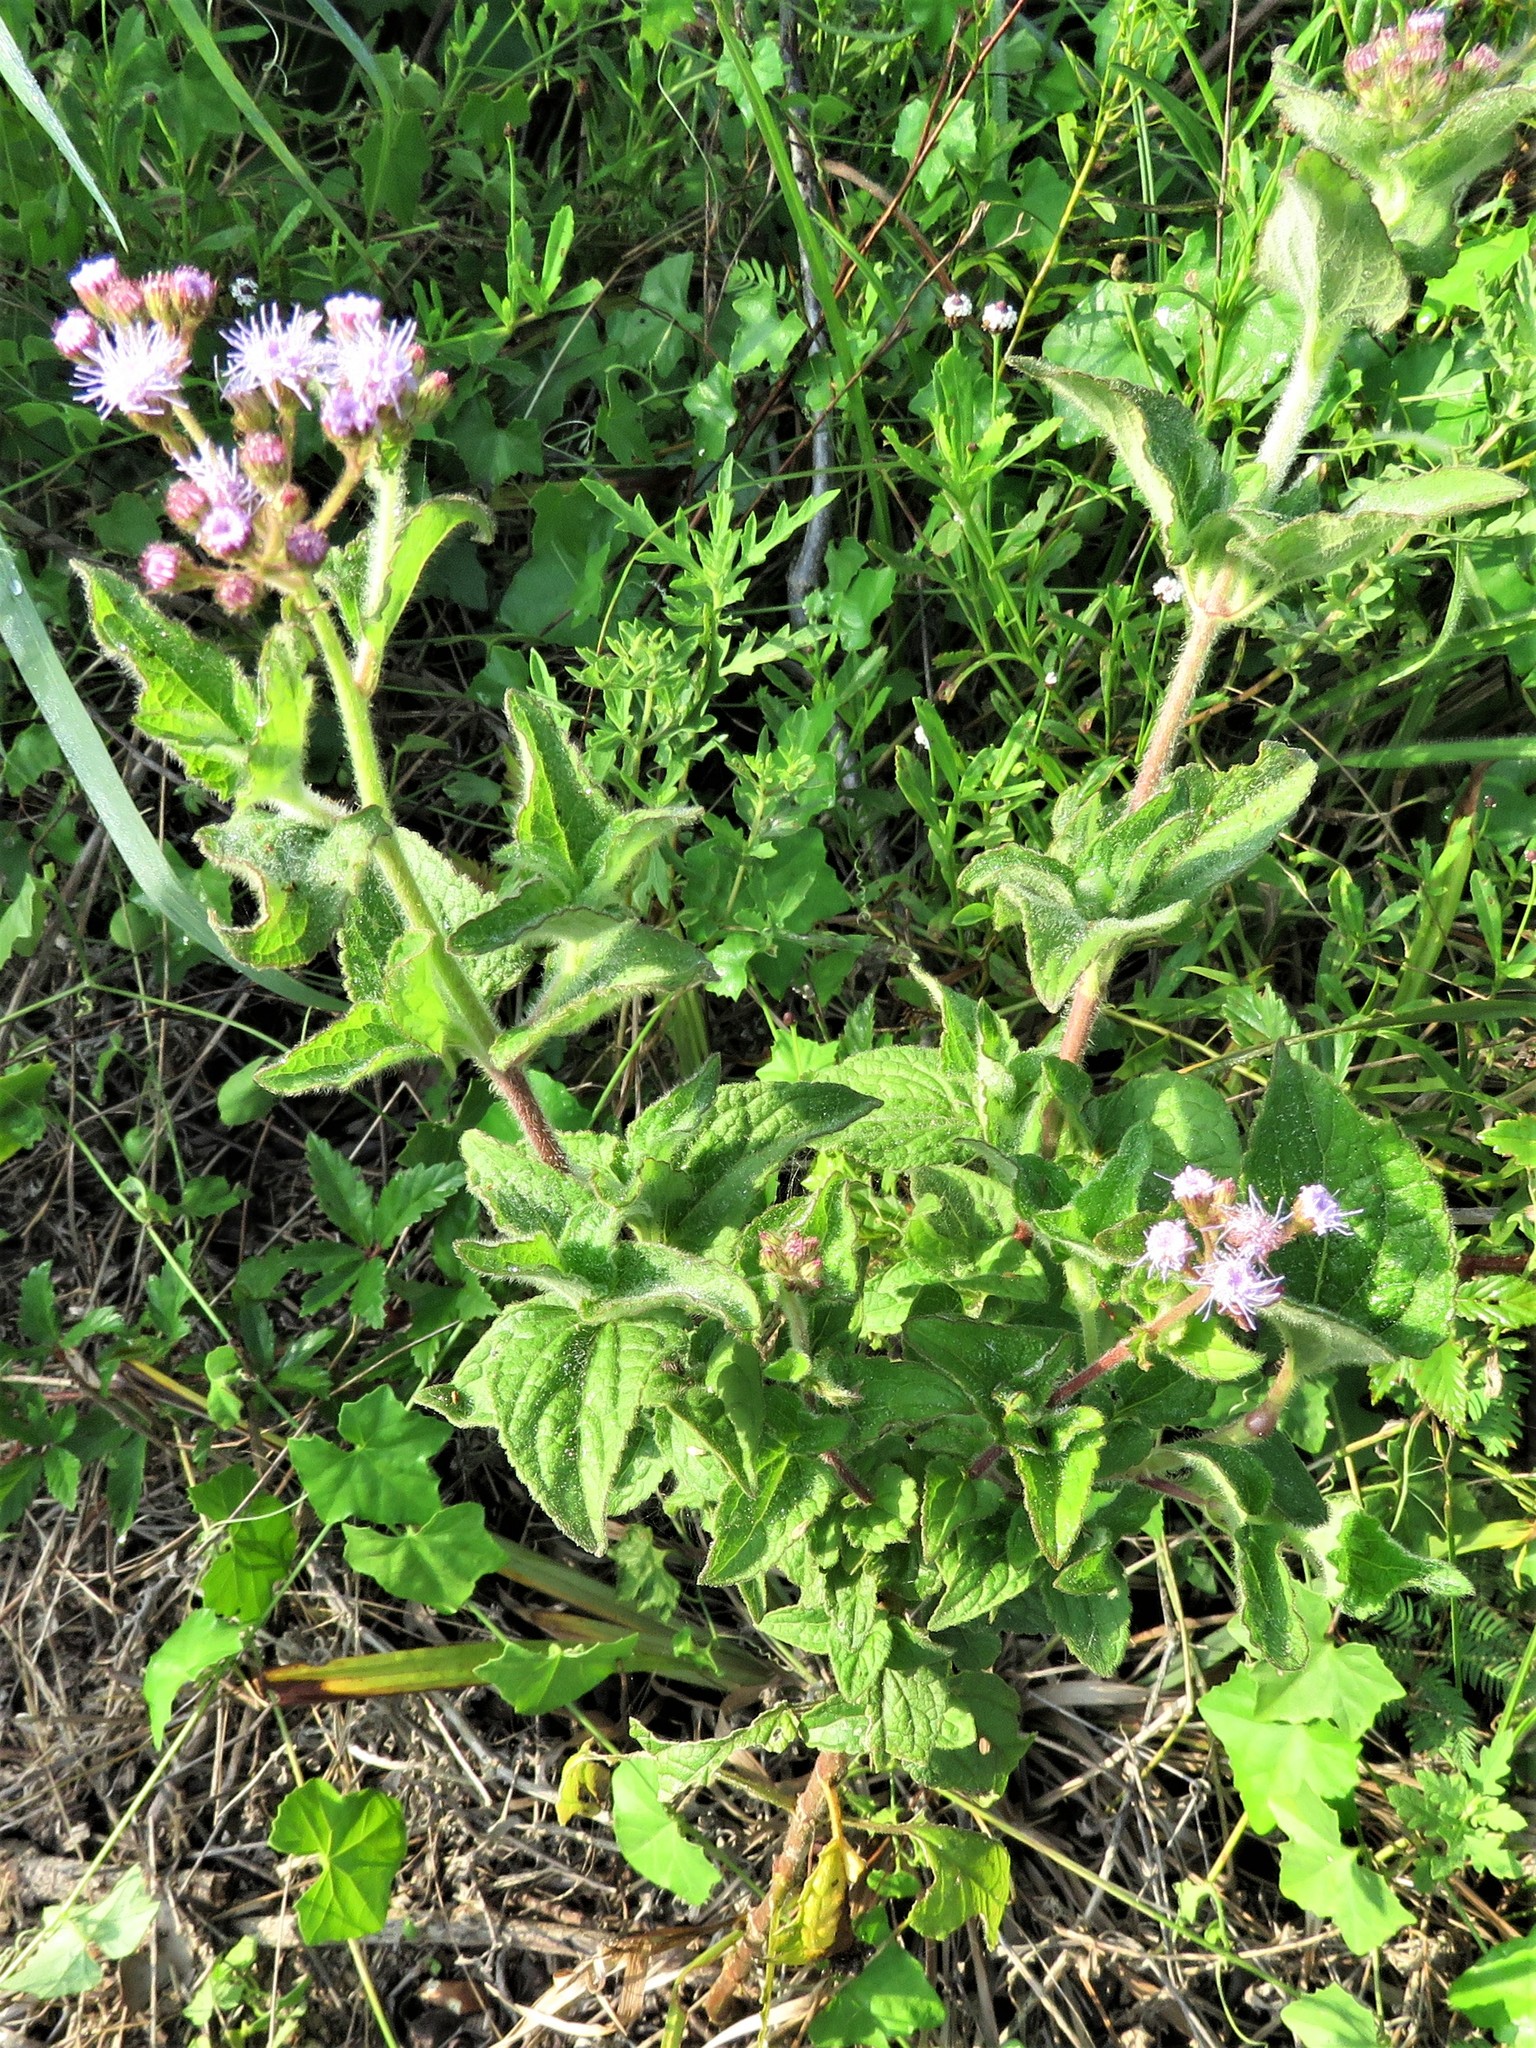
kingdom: Plantae
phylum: Tracheophyta
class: Magnoliopsida
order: Asterales
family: Asteraceae
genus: Conoclinium
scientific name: Conoclinium coelestinum
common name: Blue mistflower
